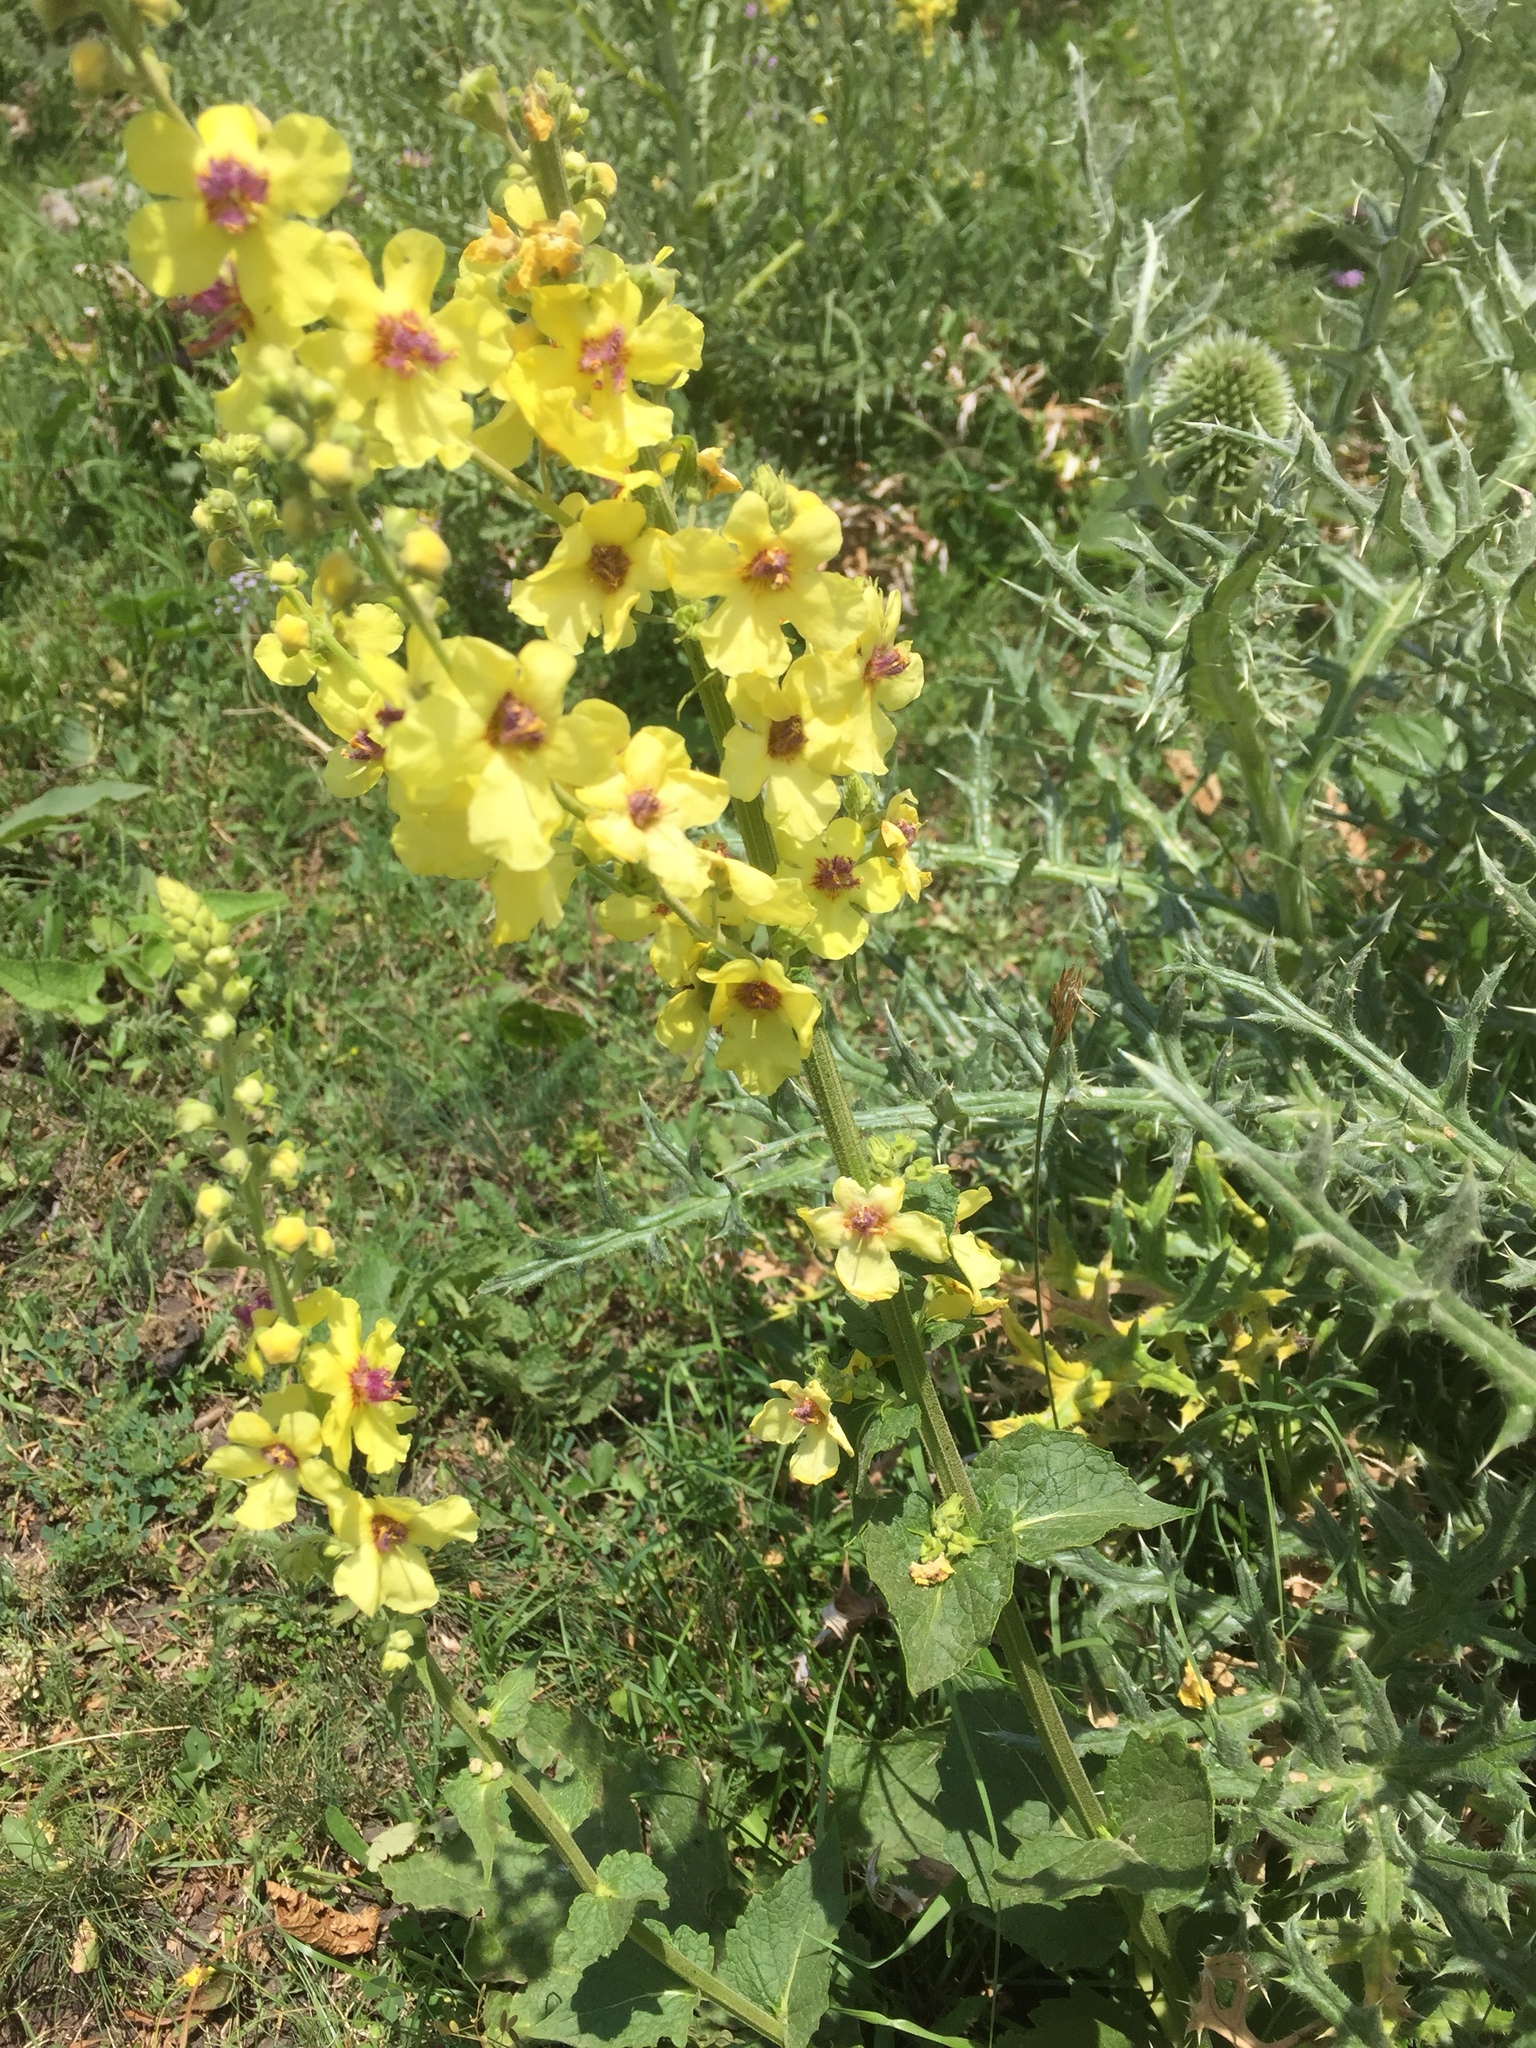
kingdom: Plantae
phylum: Tracheophyta
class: Magnoliopsida
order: Lamiales
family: Scrophulariaceae
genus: Verbascum
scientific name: Verbascum nigrum
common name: Dark mullein
